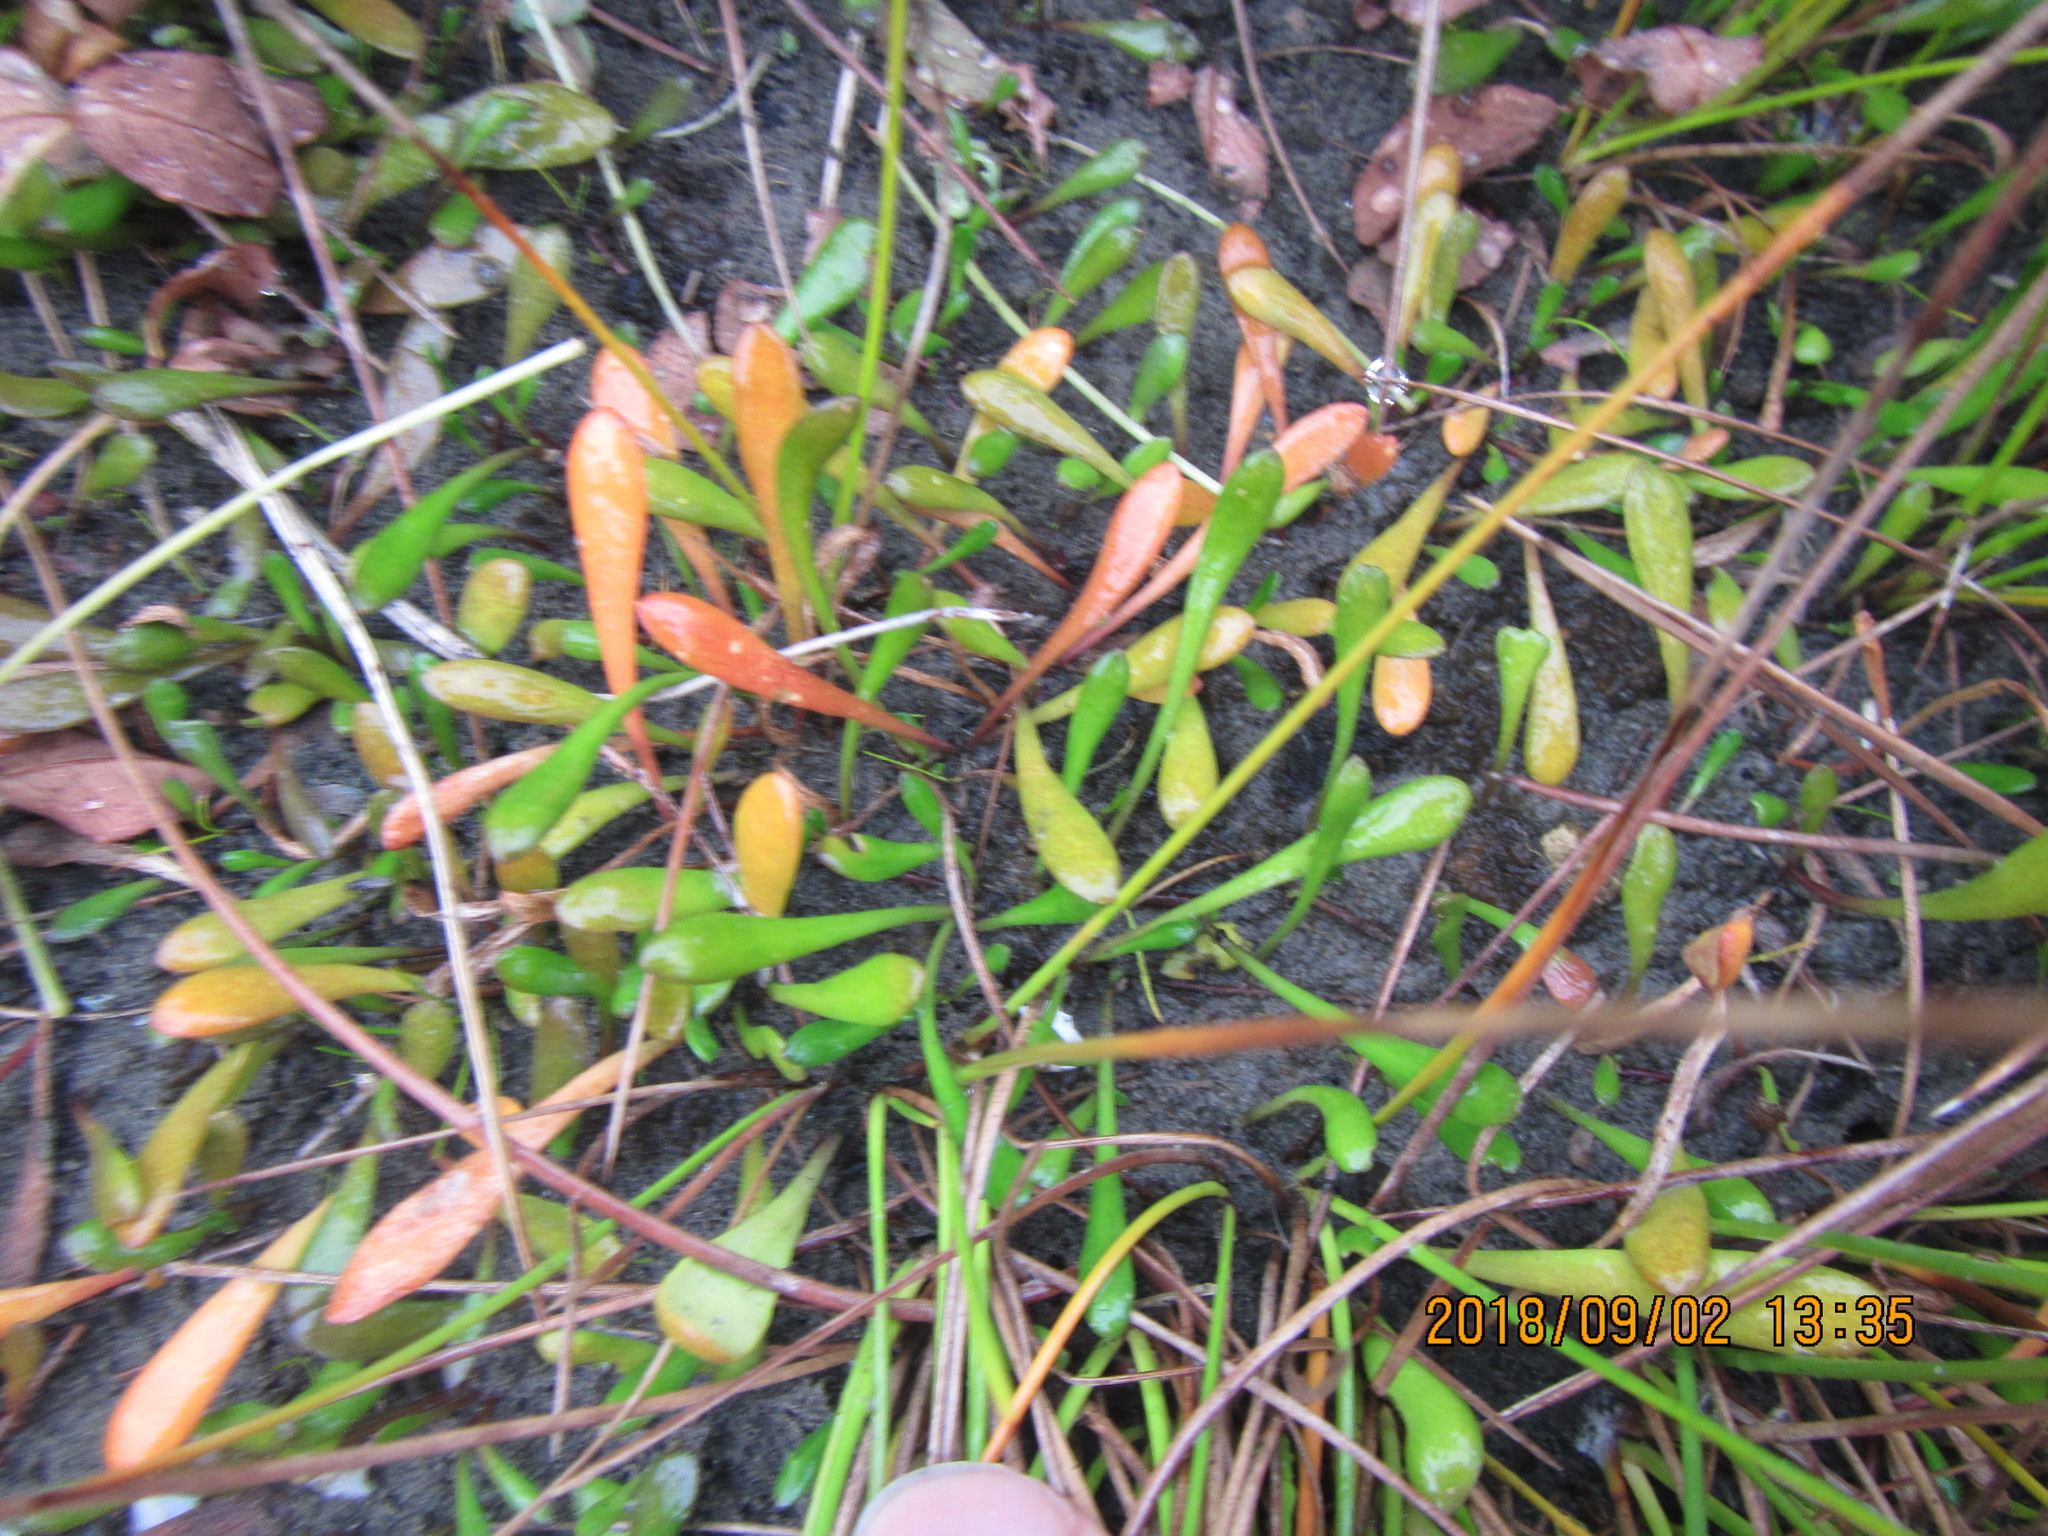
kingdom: Plantae
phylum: Tracheophyta
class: Magnoliopsida
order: Asterales
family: Goodeniaceae
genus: Goodenia
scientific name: Goodenia radicans
